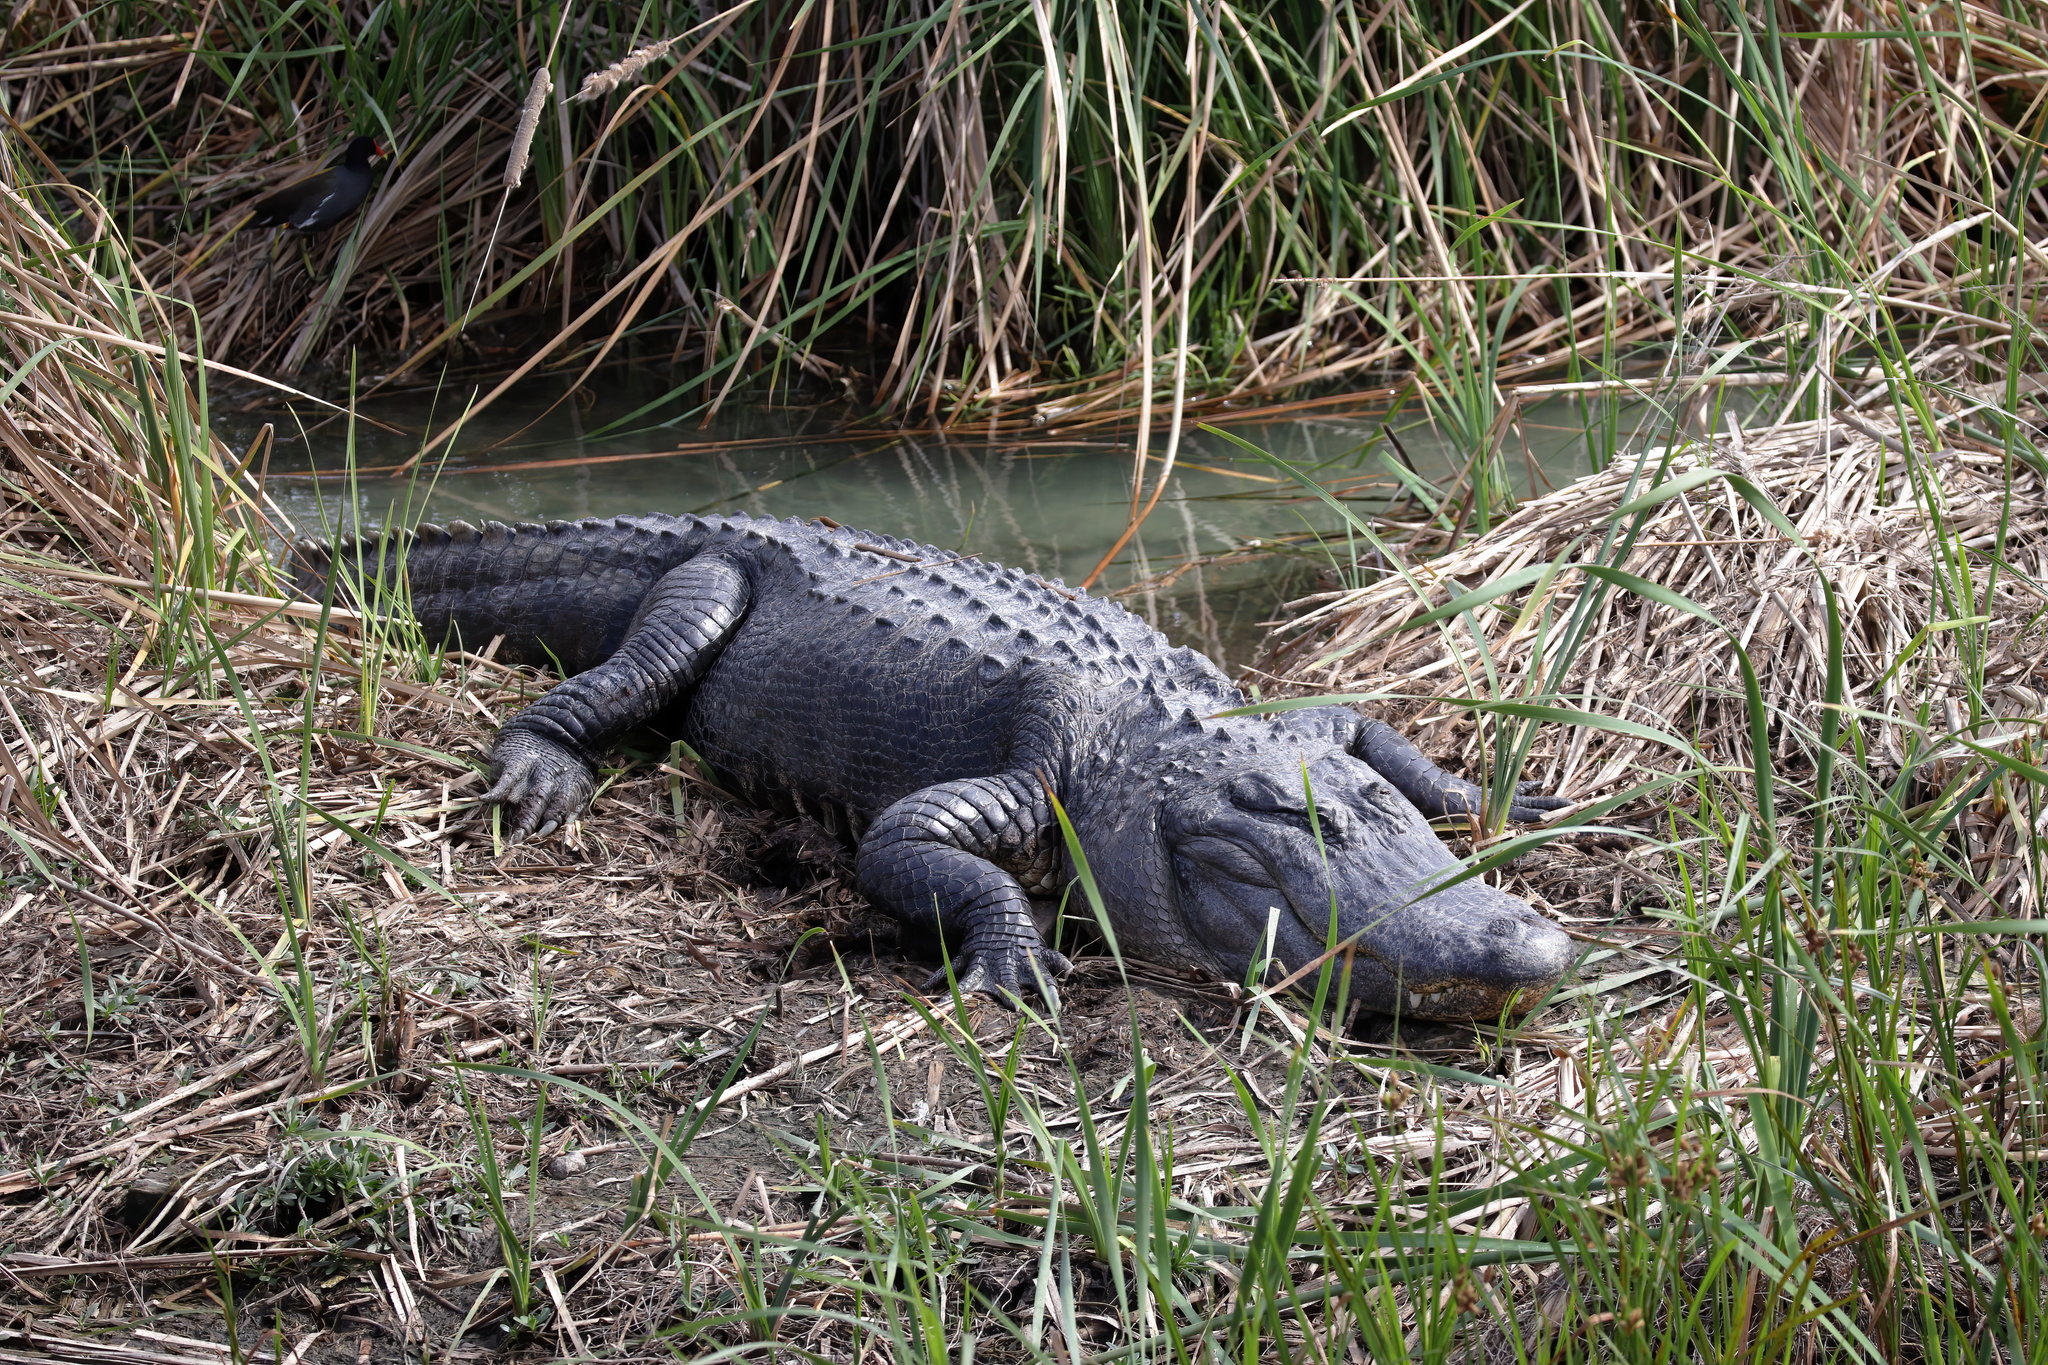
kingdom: Animalia
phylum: Chordata
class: Crocodylia
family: Alligatoridae
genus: Alligator
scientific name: Alligator mississippiensis
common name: American alligator
